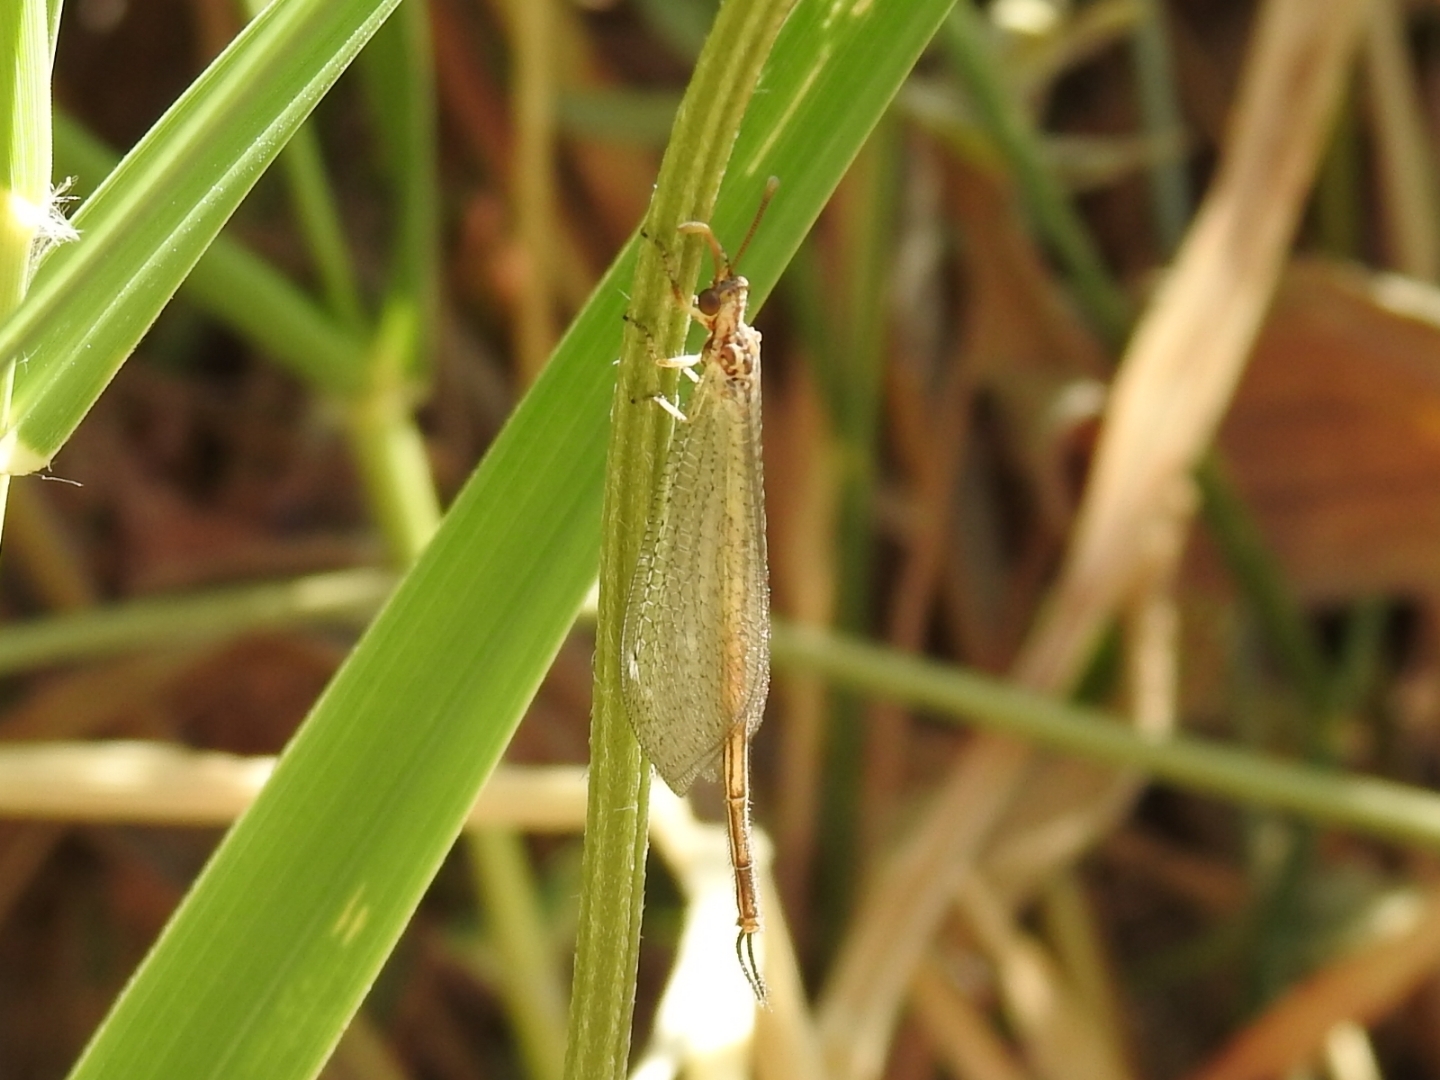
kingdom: Animalia
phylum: Arthropoda
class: Insecta
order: Neuroptera
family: Myrmeleontidae
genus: Macronemurus
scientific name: Macronemurus appendiculatus
